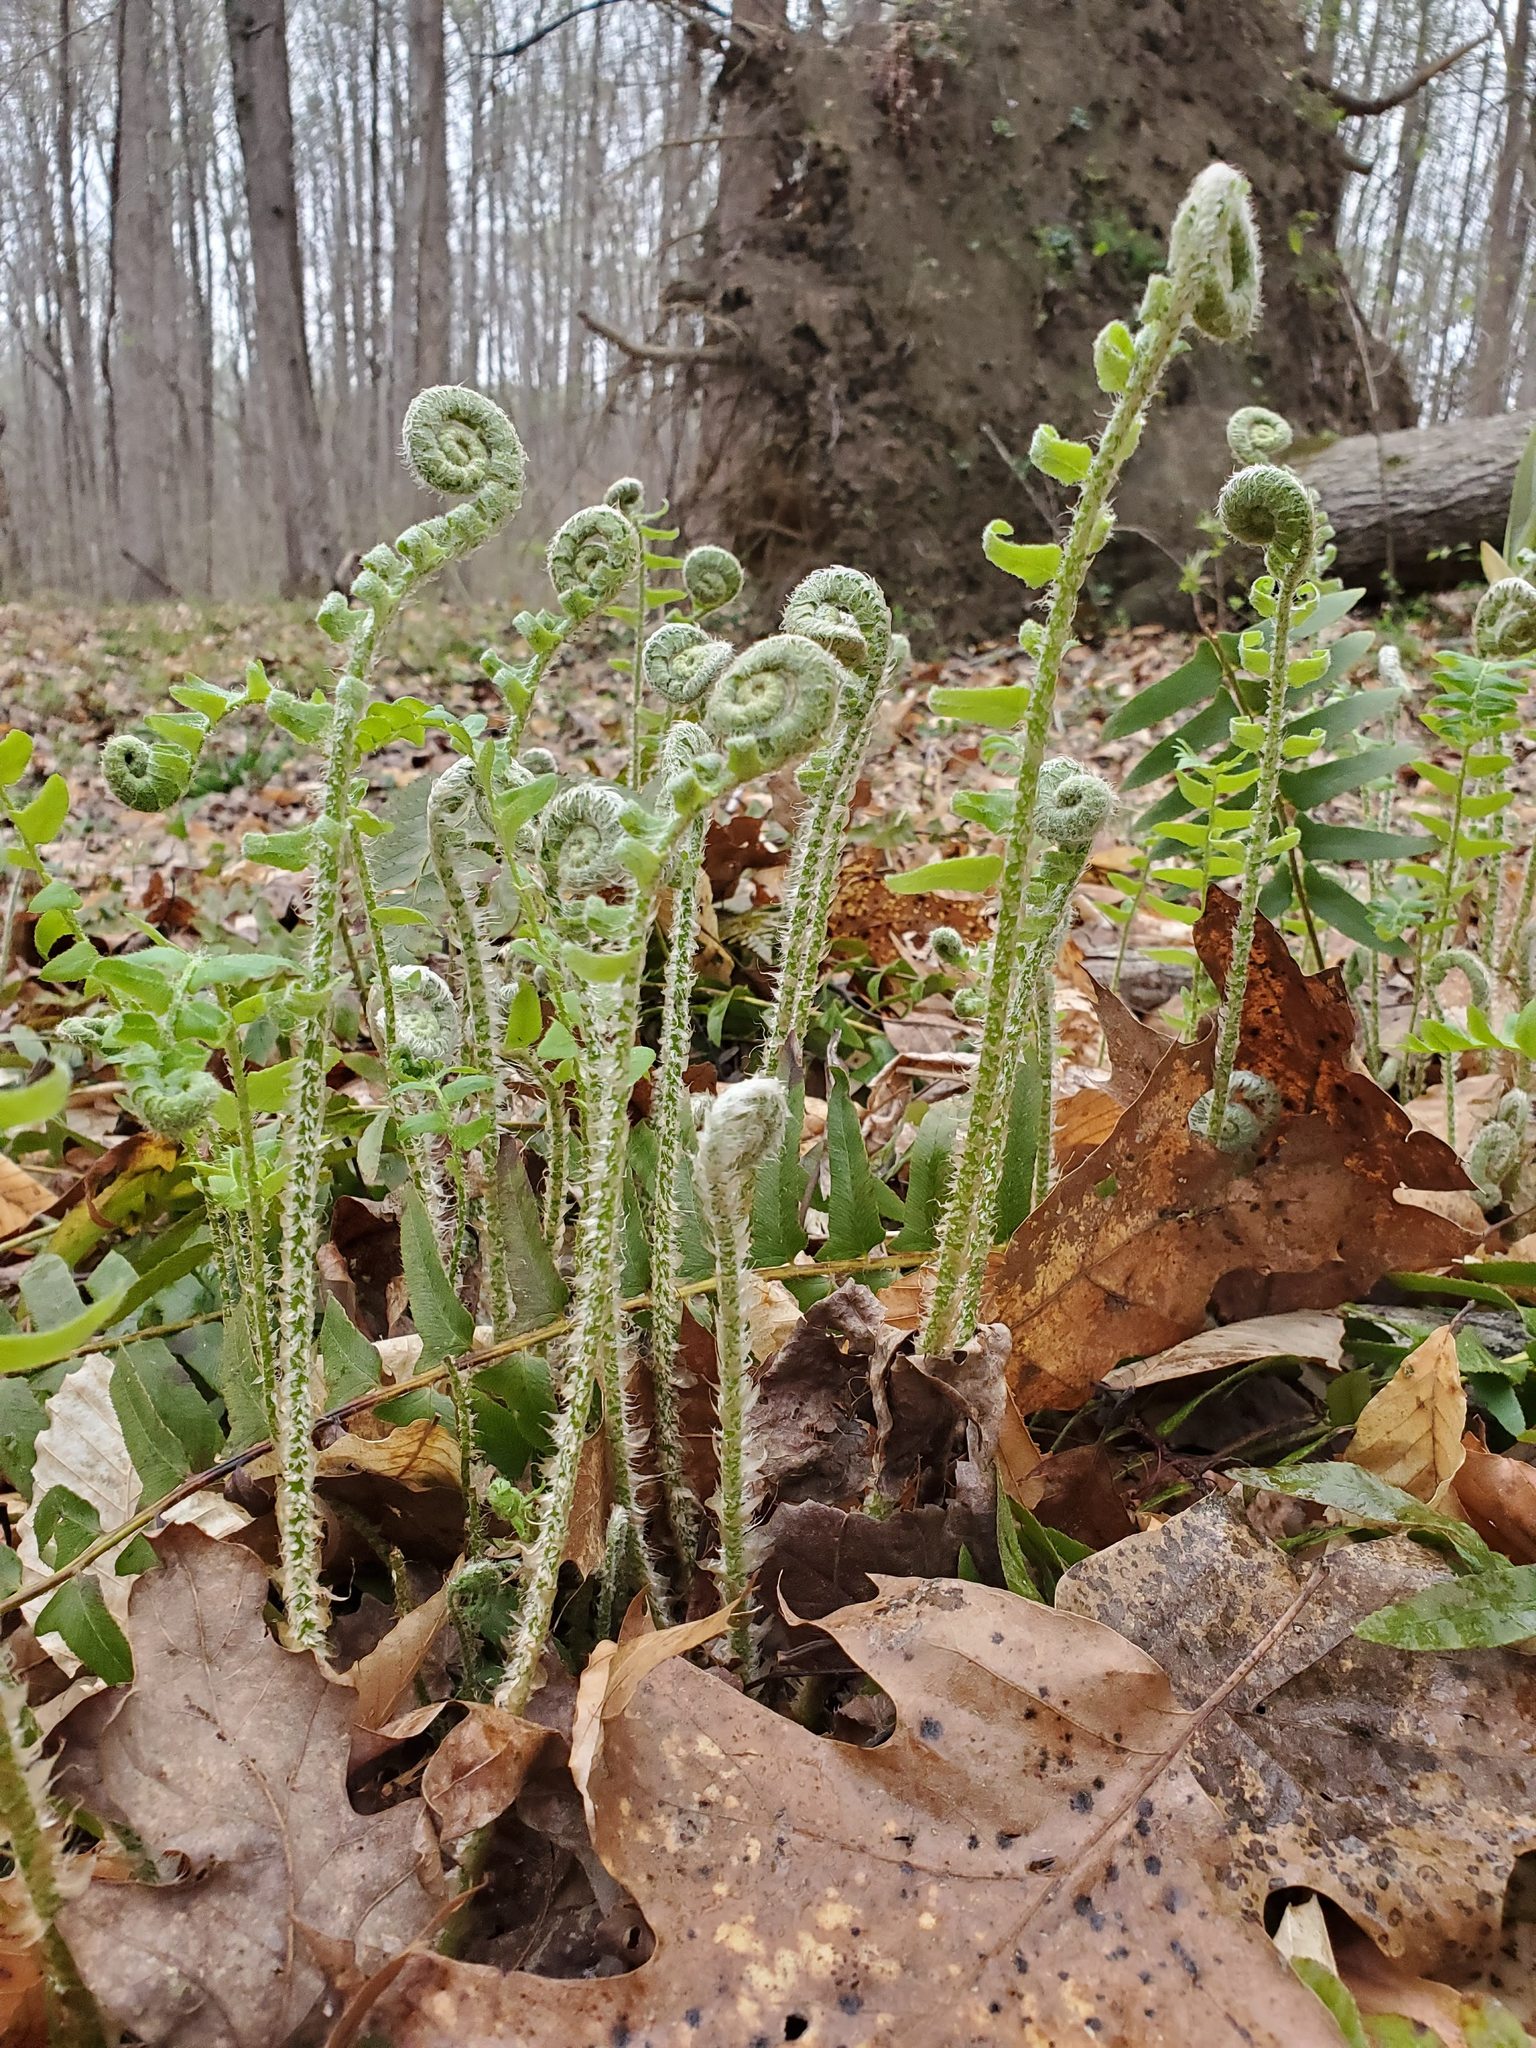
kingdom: Plantae
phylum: Tracheophyta
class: Polypodiopsida
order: Polypodiales
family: Dryopteridaceae
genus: Polystichum
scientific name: Polystichum acrostichoides
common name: Christmas fern
